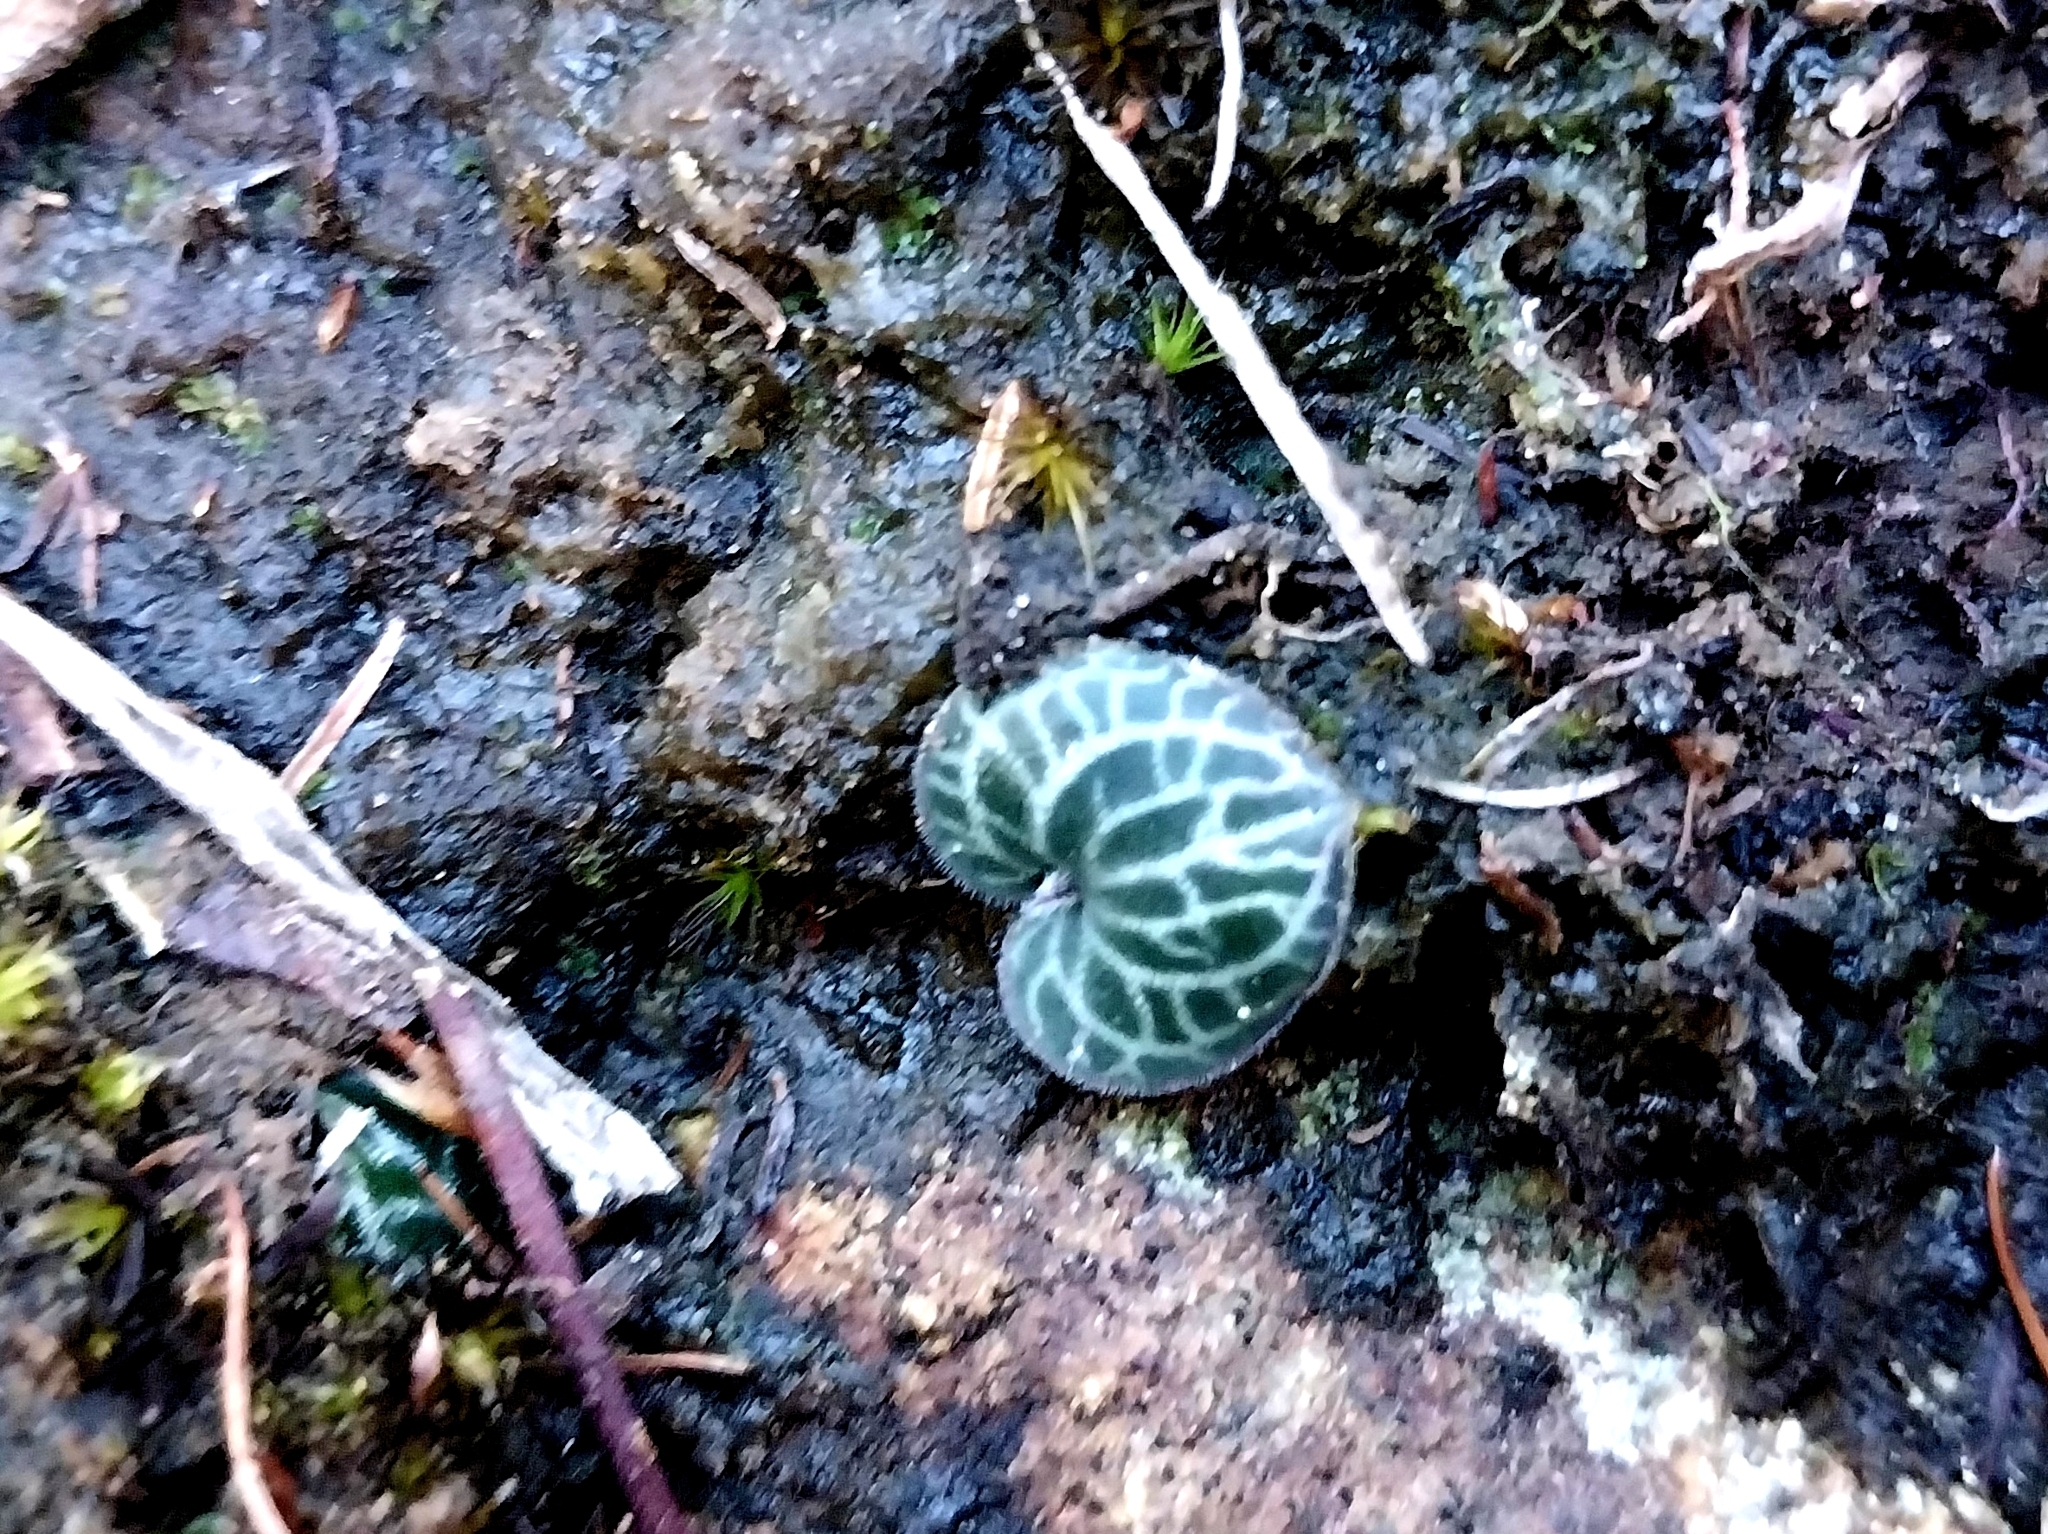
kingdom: Plantae
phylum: Tracheophyta
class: Liliopsida
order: Asparagales
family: Orchidaceae
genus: Holothrix
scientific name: Holothrix etheliae
